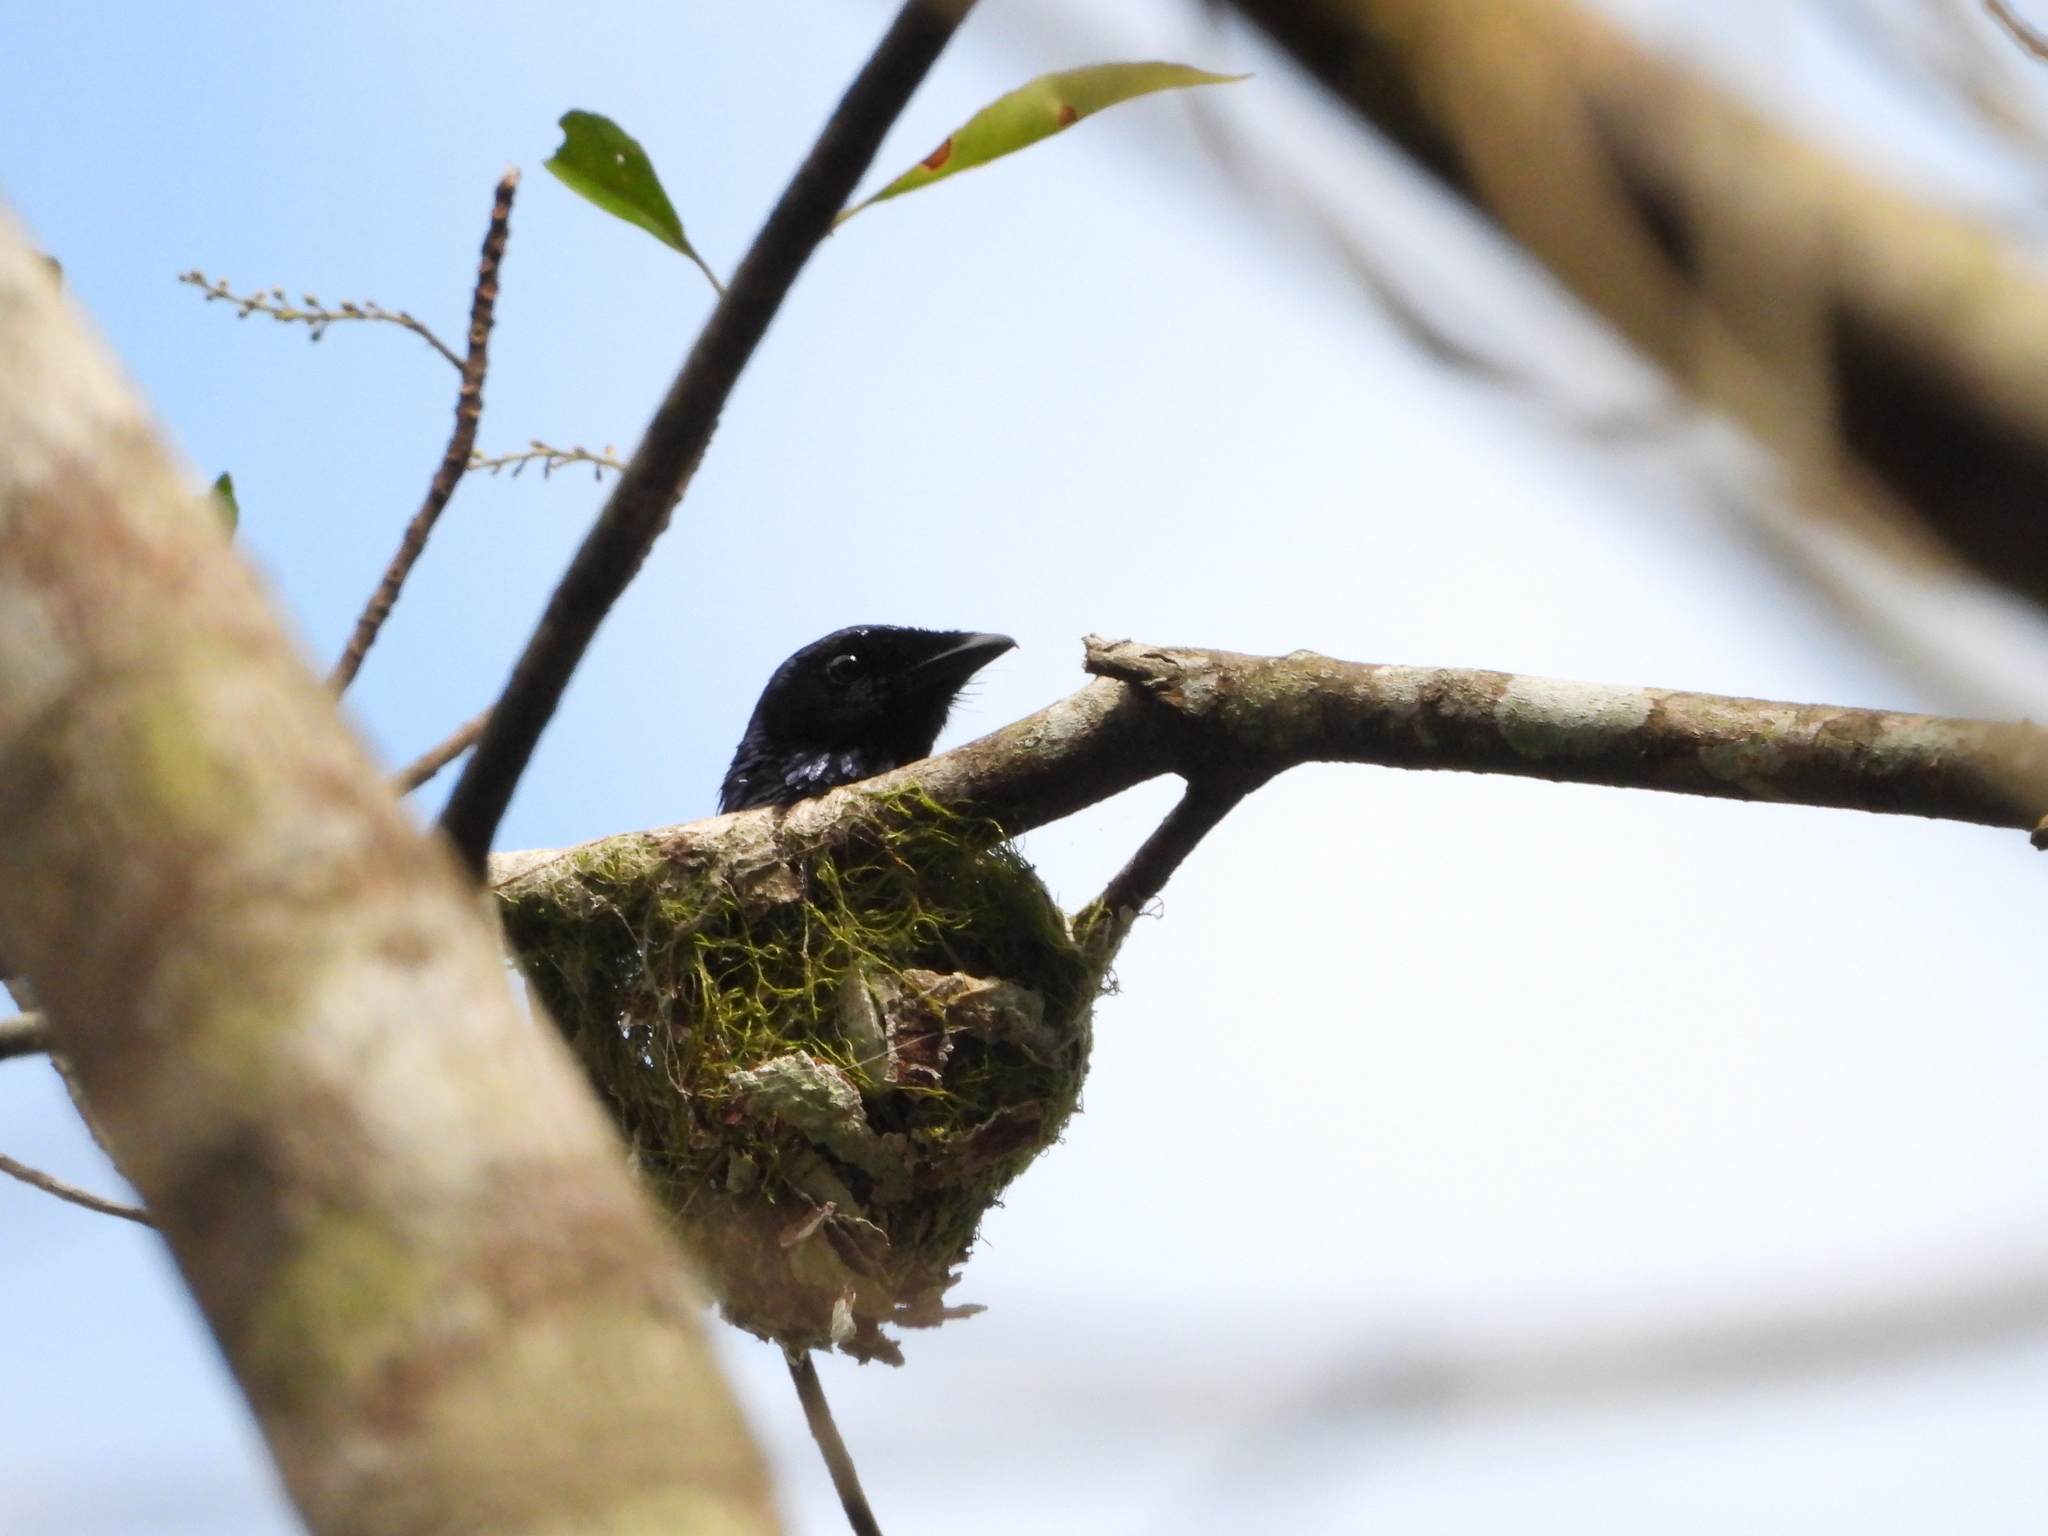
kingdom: Animalia
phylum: Chordata
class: Aves
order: Passeriformes
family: Dicruridae
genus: Dicrurus
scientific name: Dicrurus aeneus
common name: Bronzed drongo
